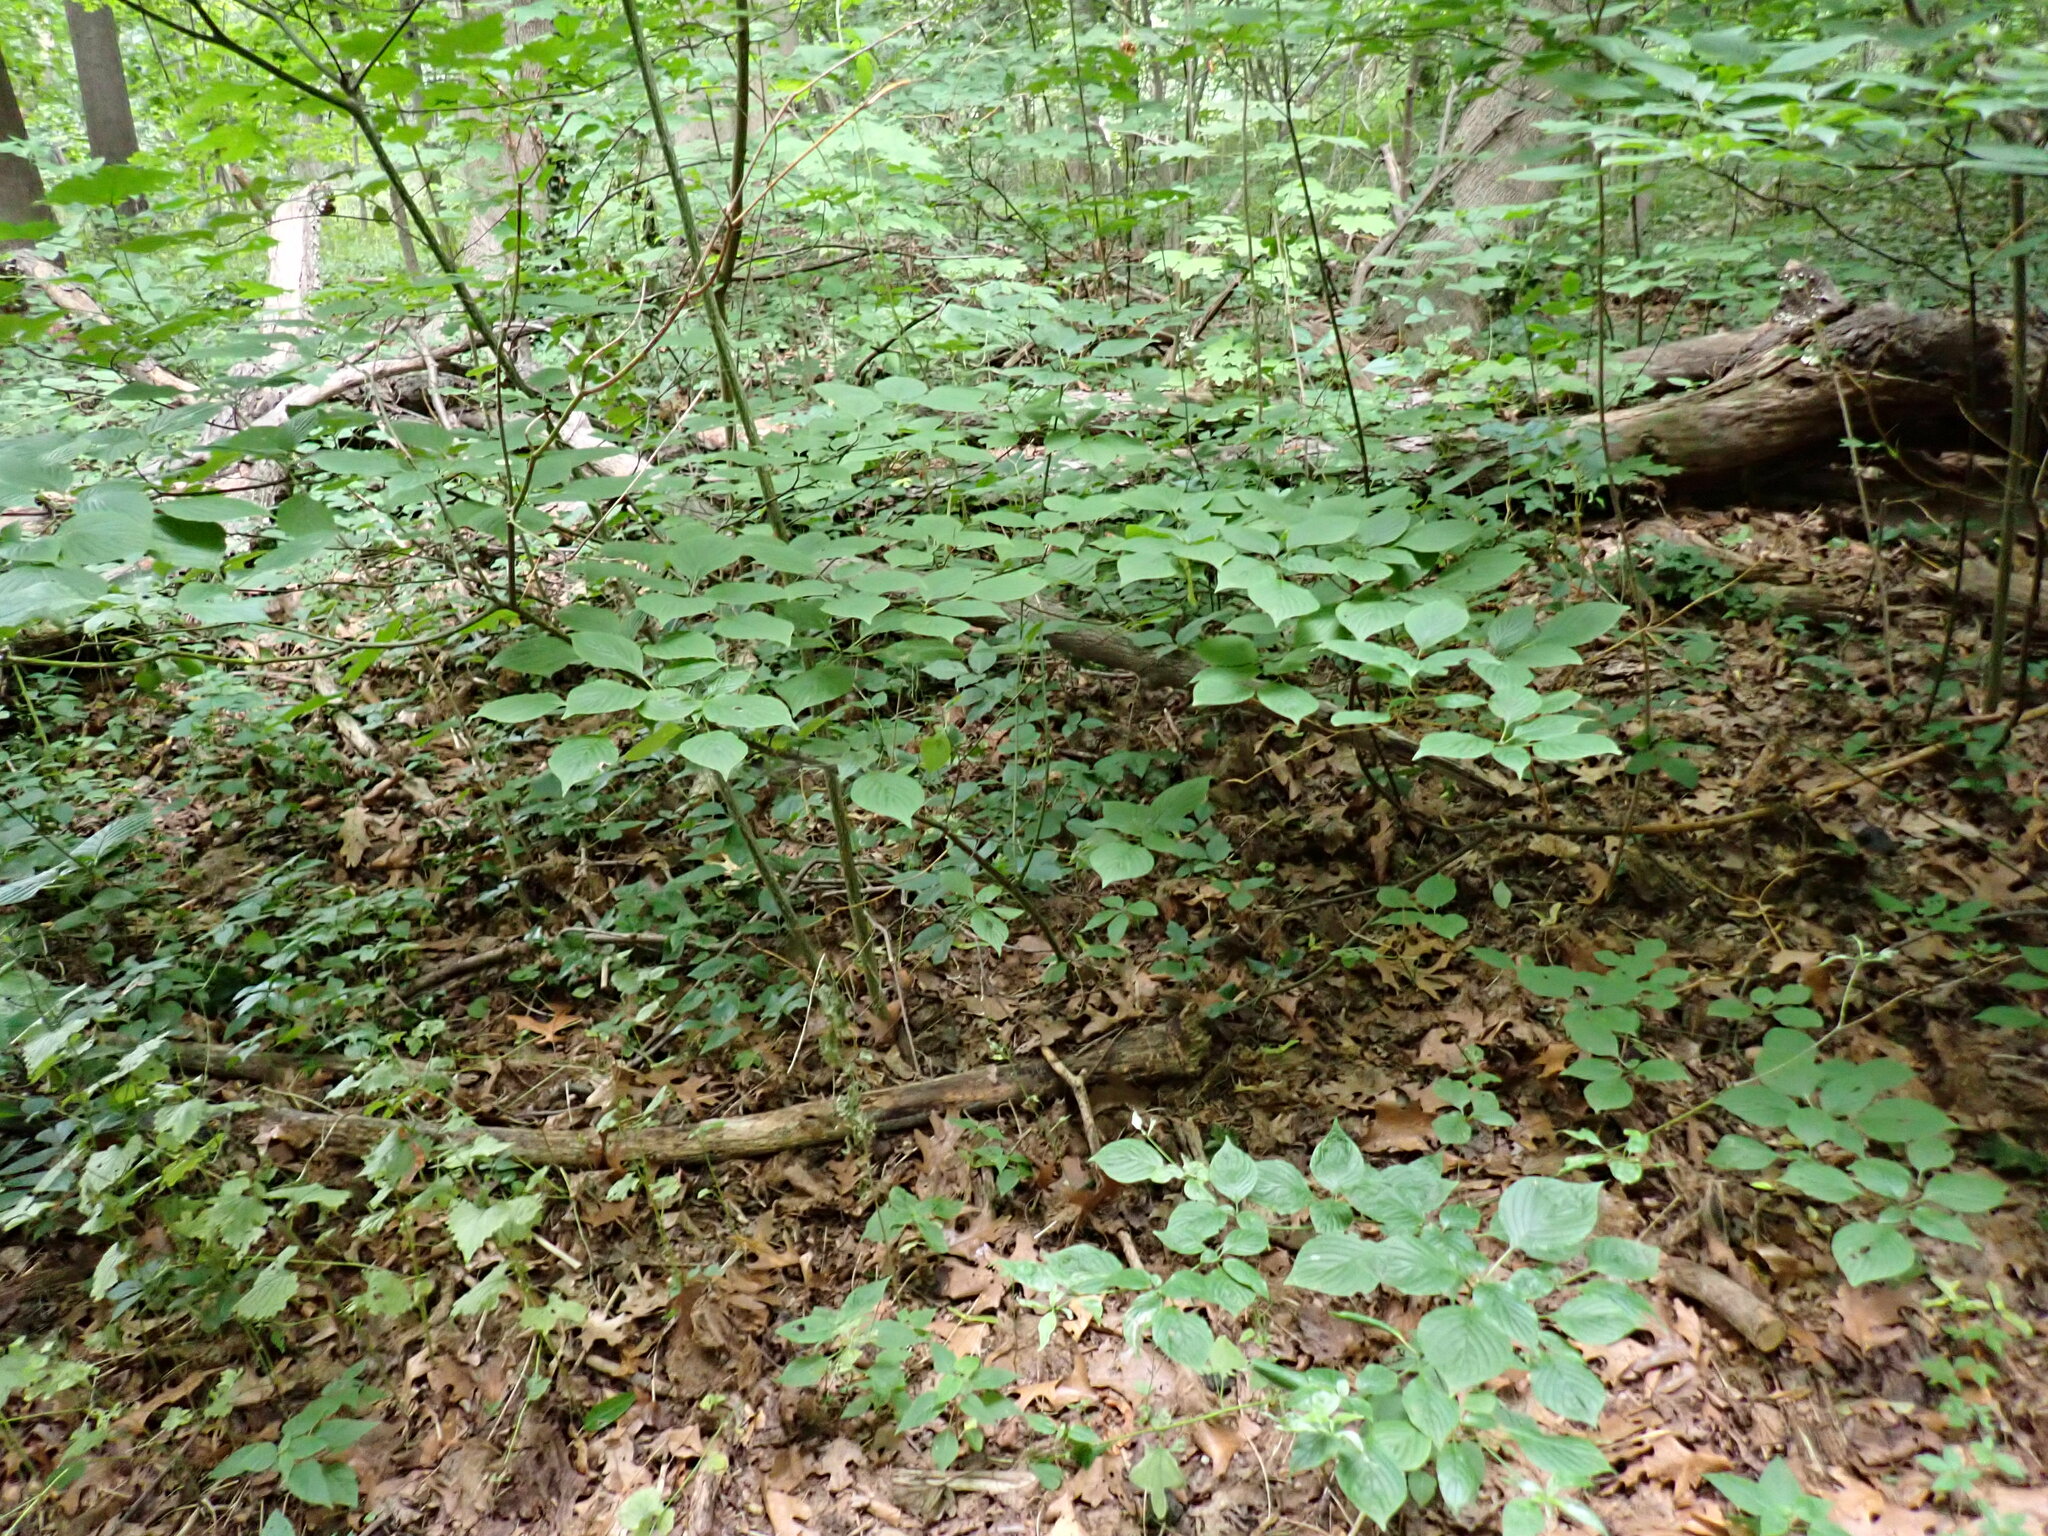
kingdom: Plantae
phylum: Tracheophyta
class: Magnoliopsida
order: Cornales
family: Cornaceae
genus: Cornus
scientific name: Cornus alternifolia
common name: Pagoda dogwood
